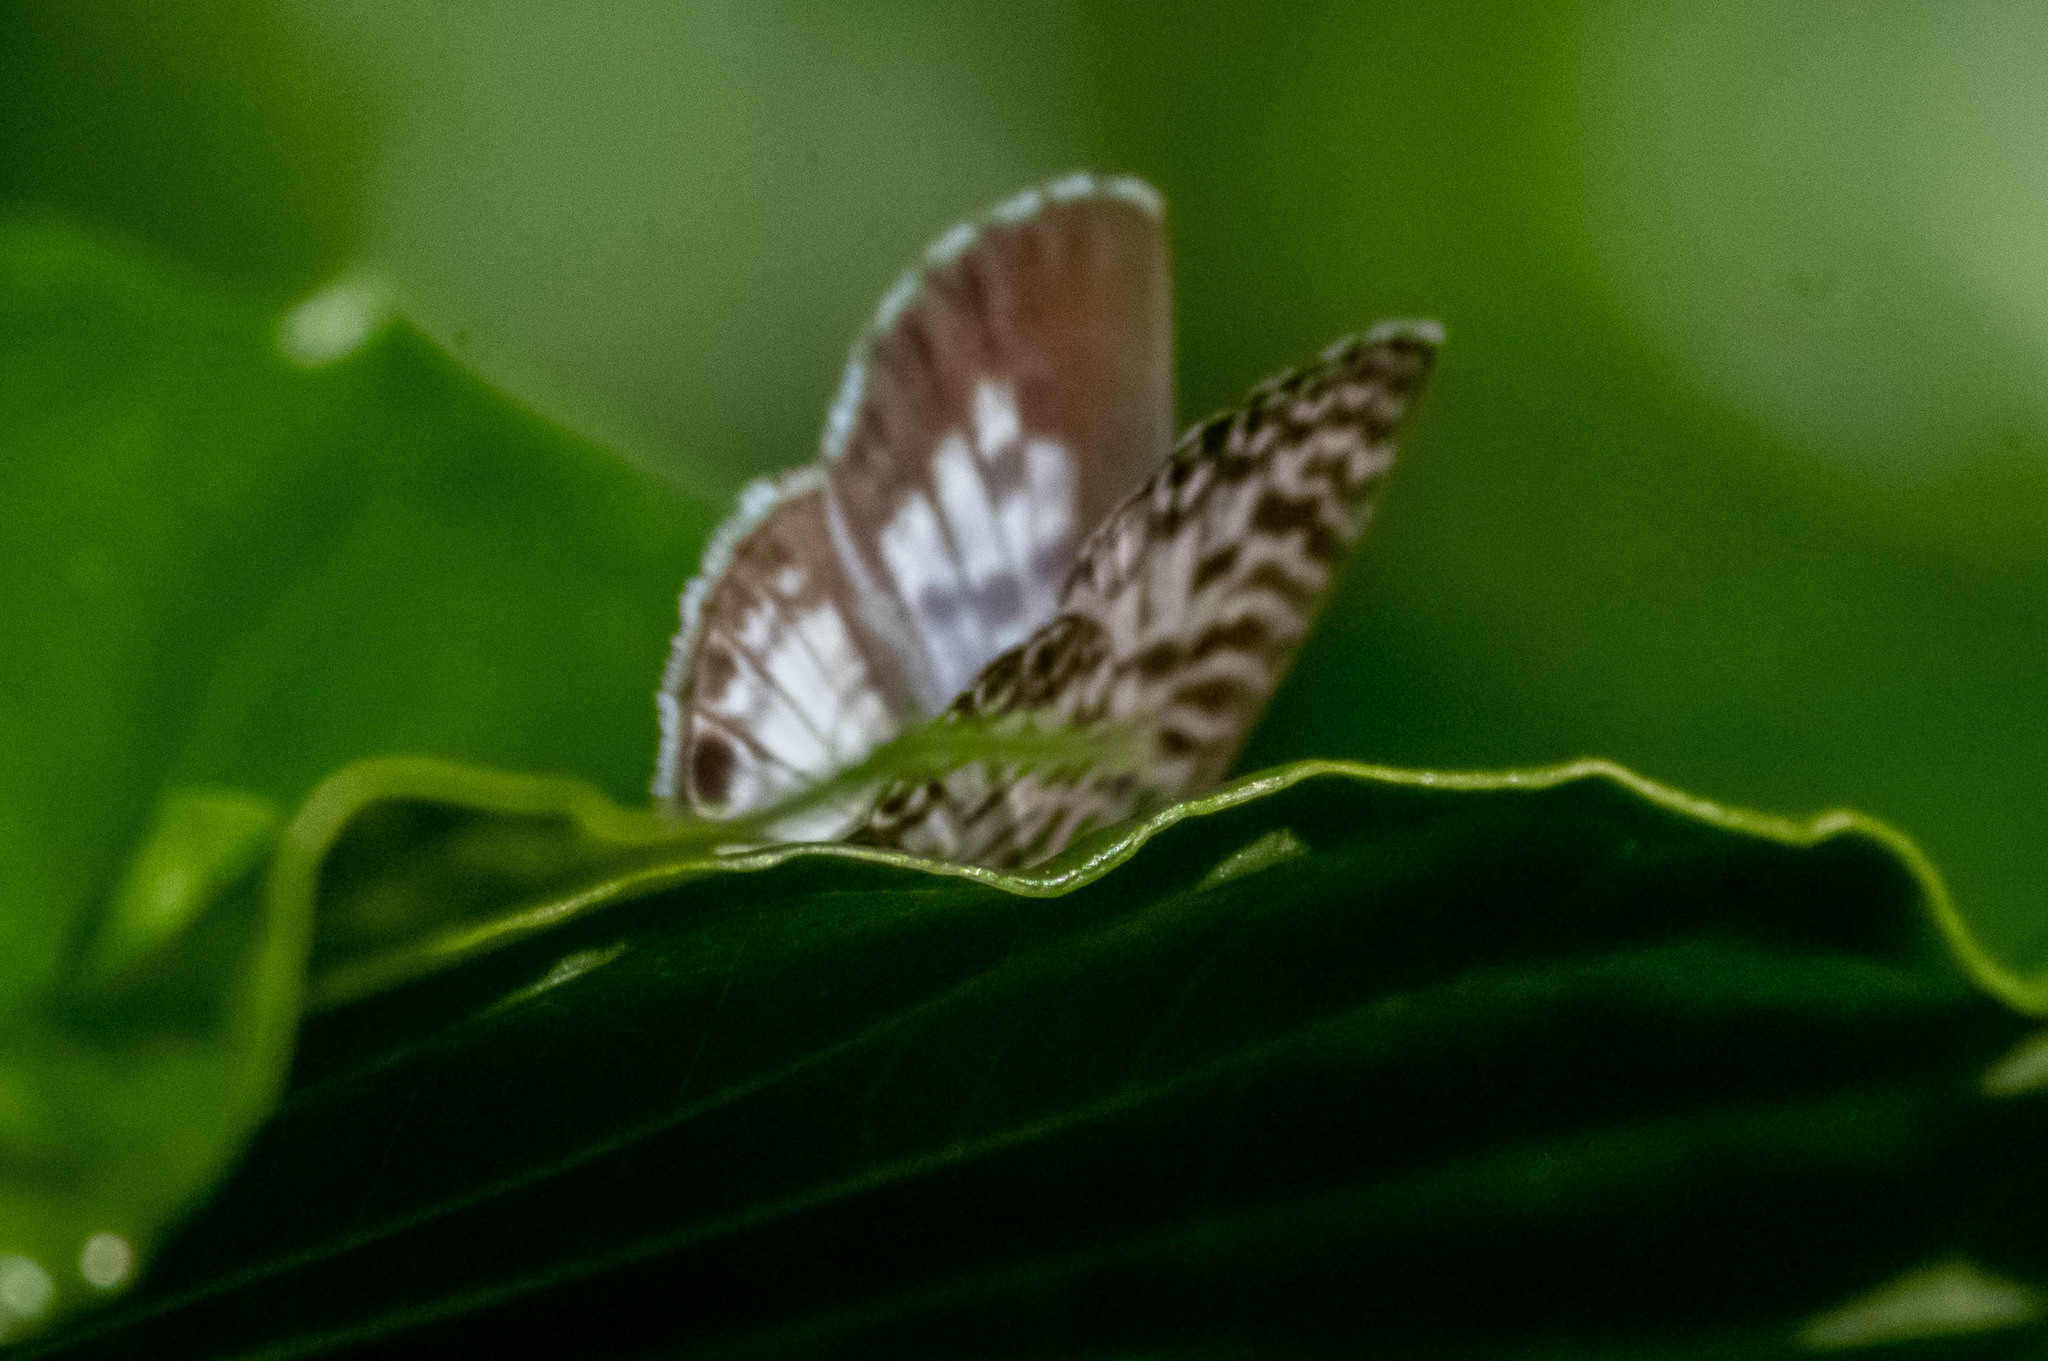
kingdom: Animalia
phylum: Arthropoda
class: Insecta
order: Lepidoptera
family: Lycaenidae
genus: Leptotes
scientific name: Leptotes cassius
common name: Cassius blue
